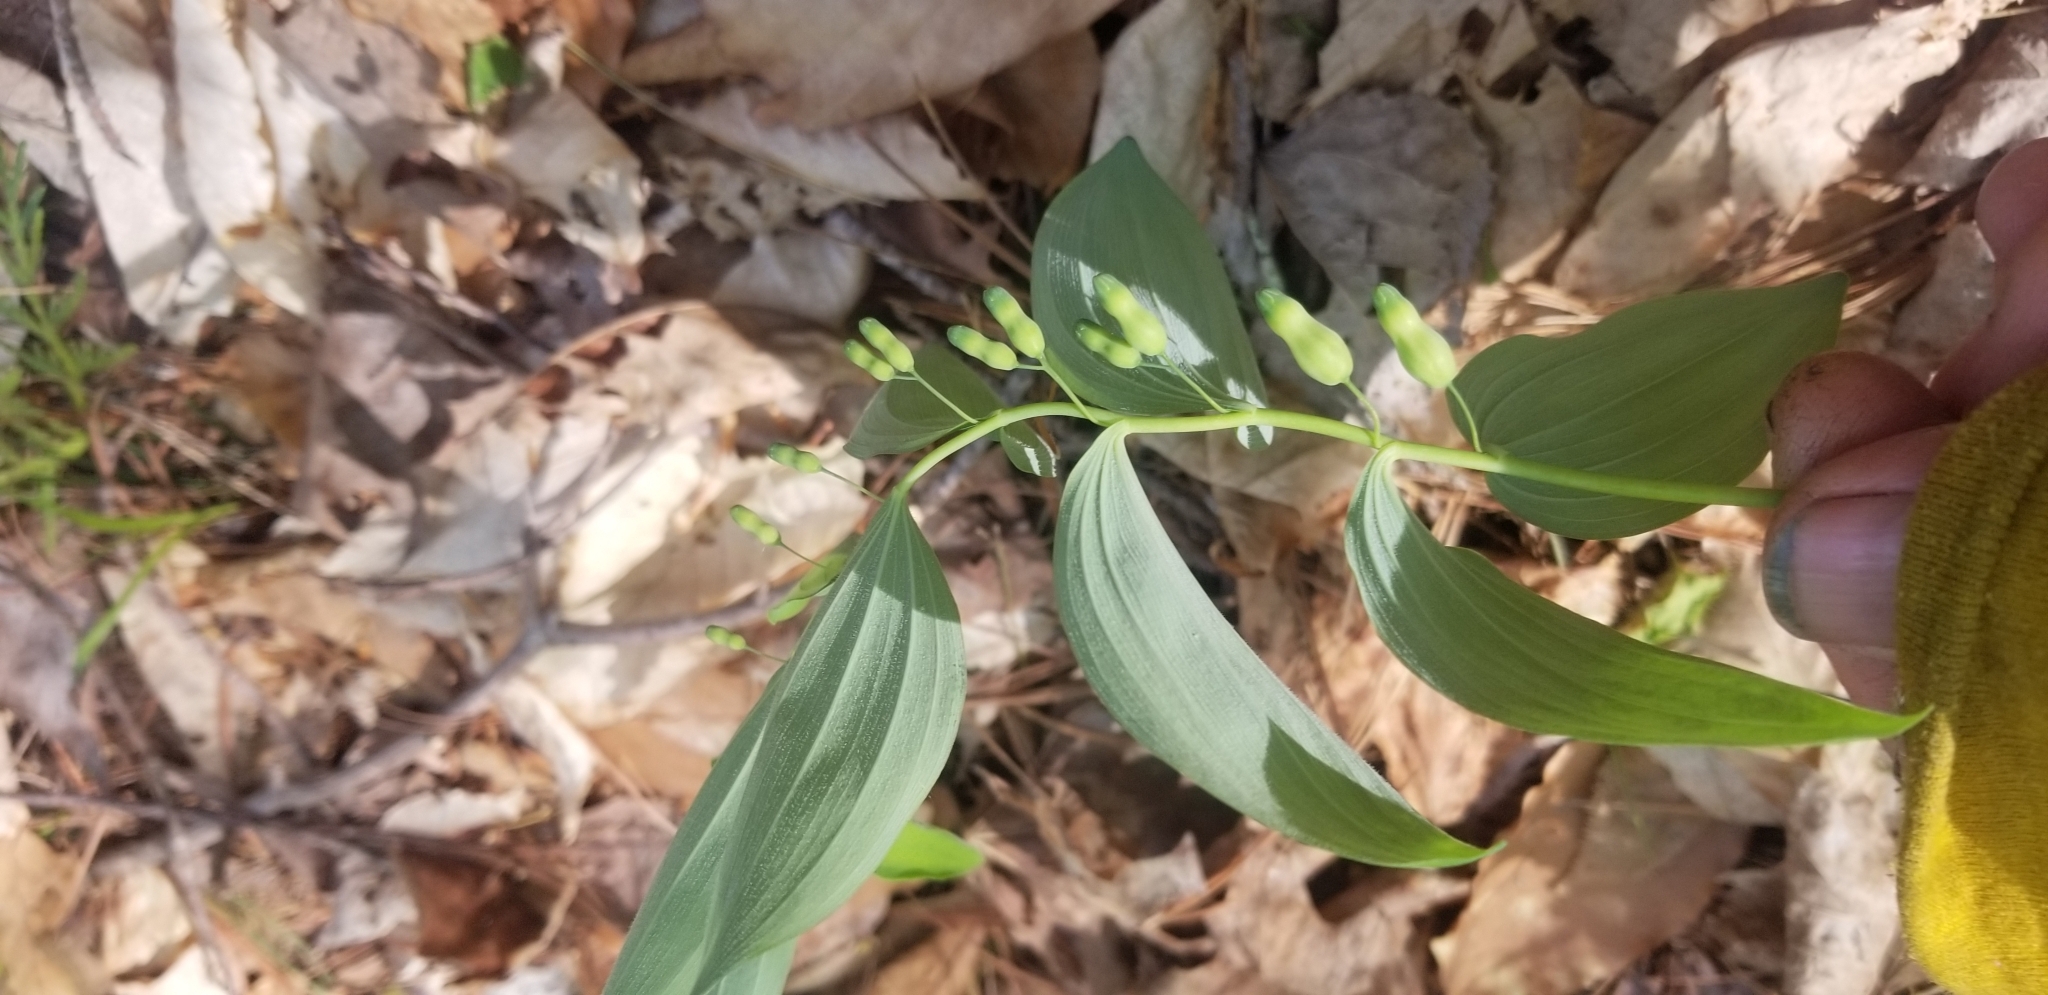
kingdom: Plantae
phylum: Tracheophyta
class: Liliopsida
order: Asparagales
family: Asparagaceae
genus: Polygonatum
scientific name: Polygonatum pubescens
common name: Downy solomon's seal
